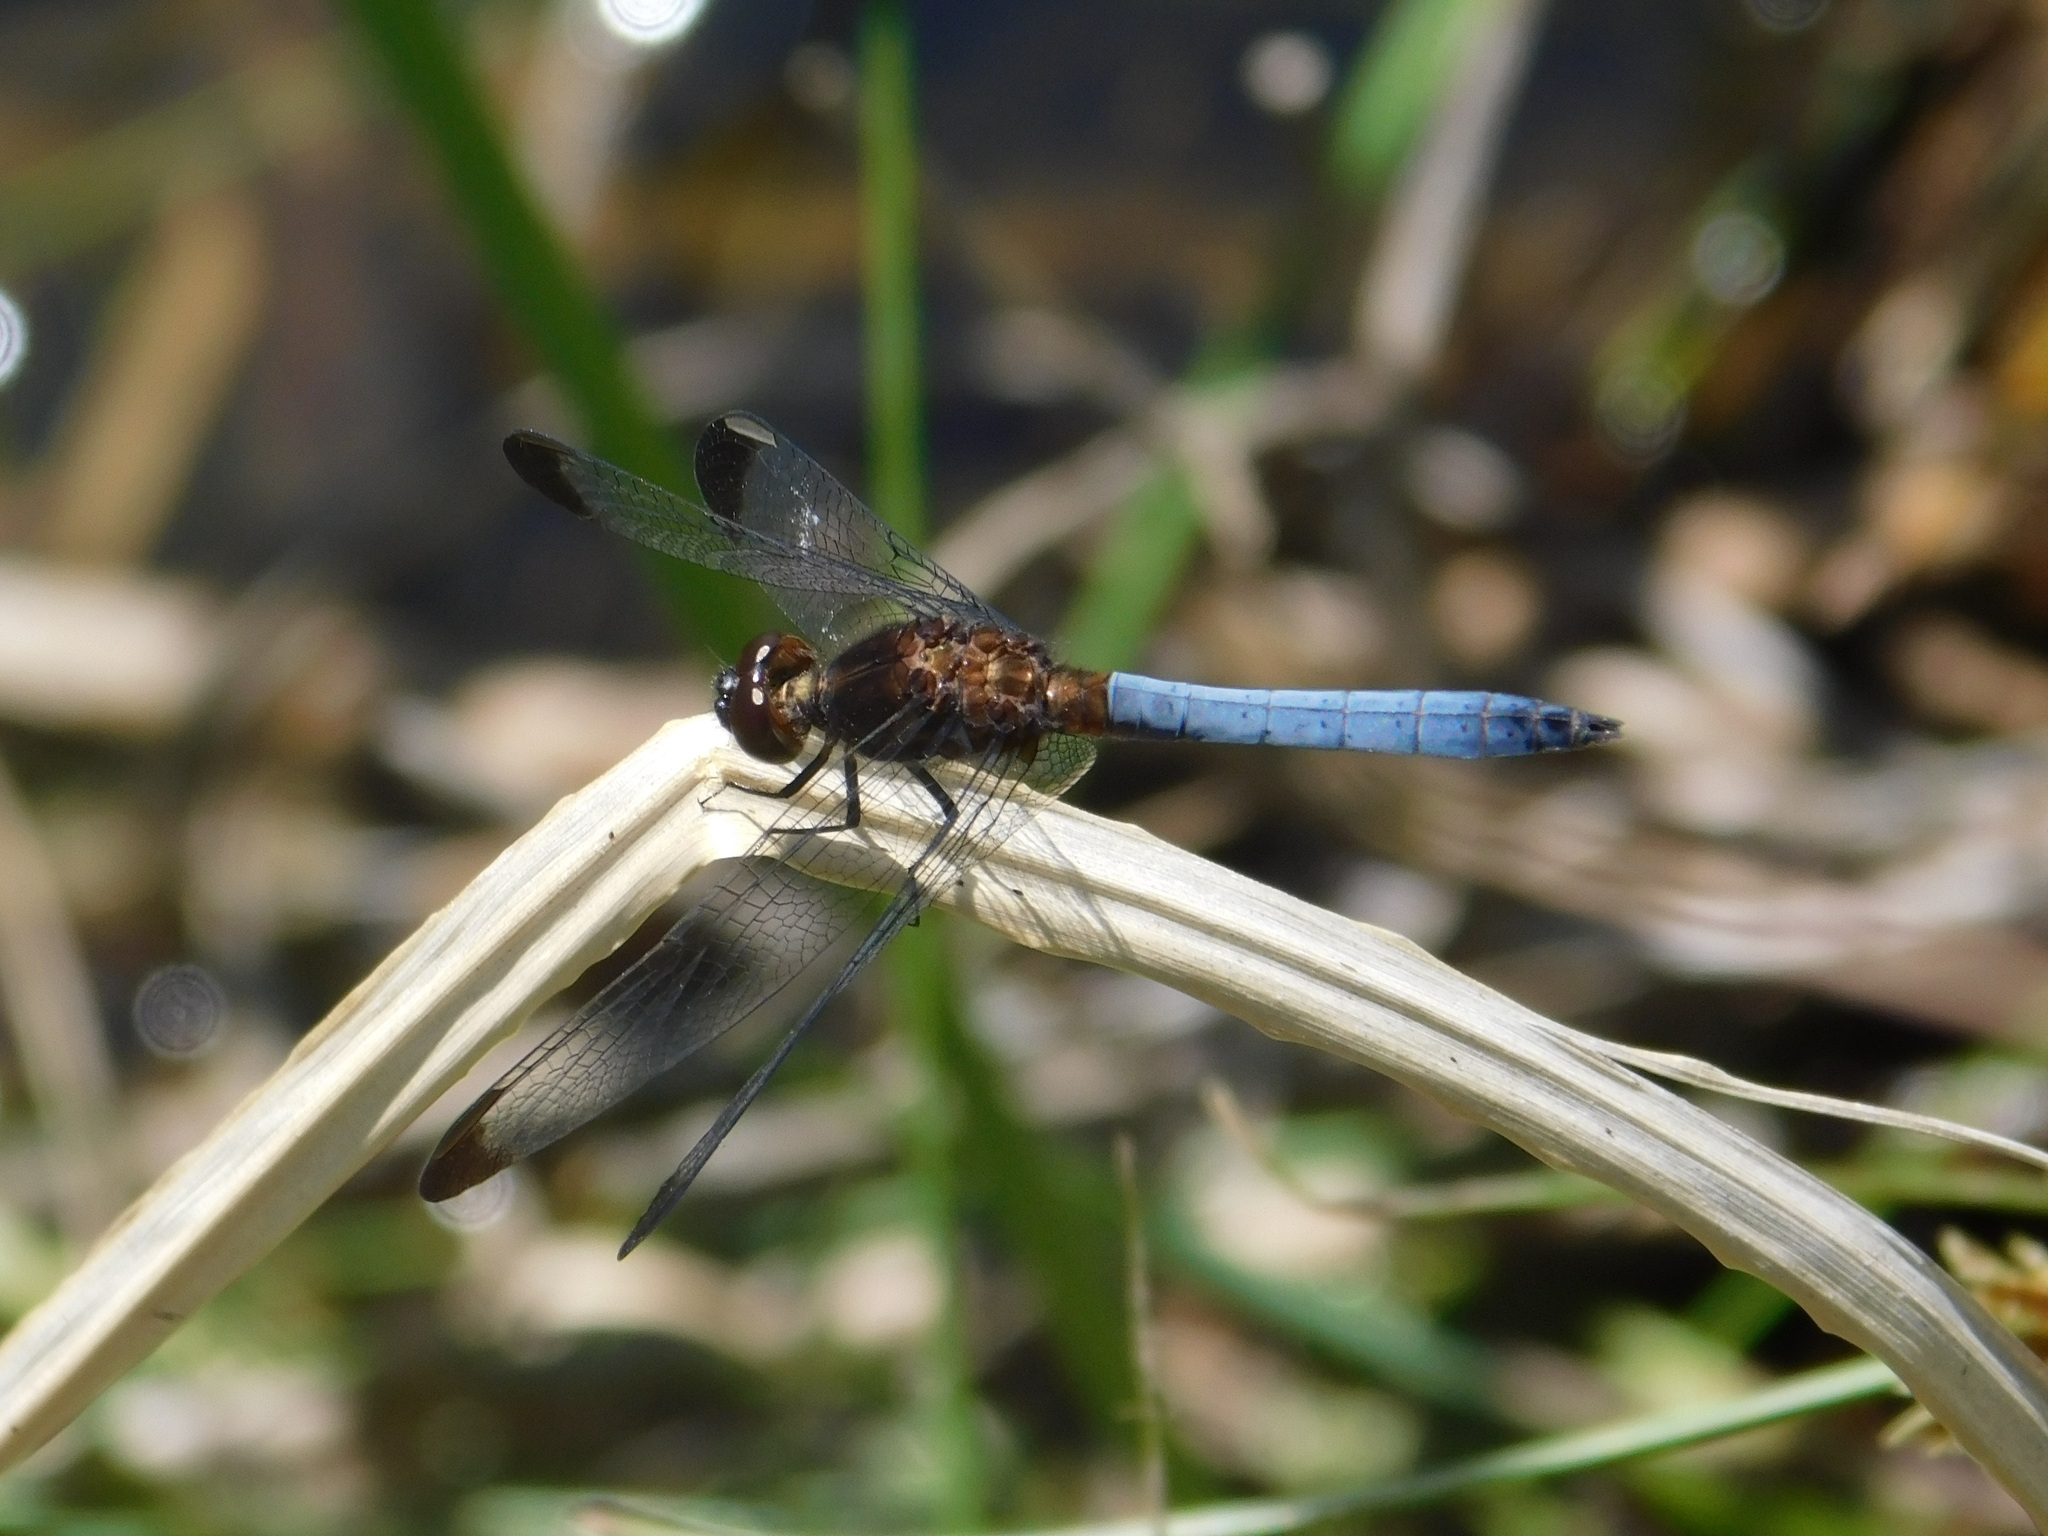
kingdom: Animalia
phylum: Arthropoda
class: Insecta
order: Odonata
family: Libellulidae
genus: Erythrodiplax
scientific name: Erythrodiplax atroterminata
